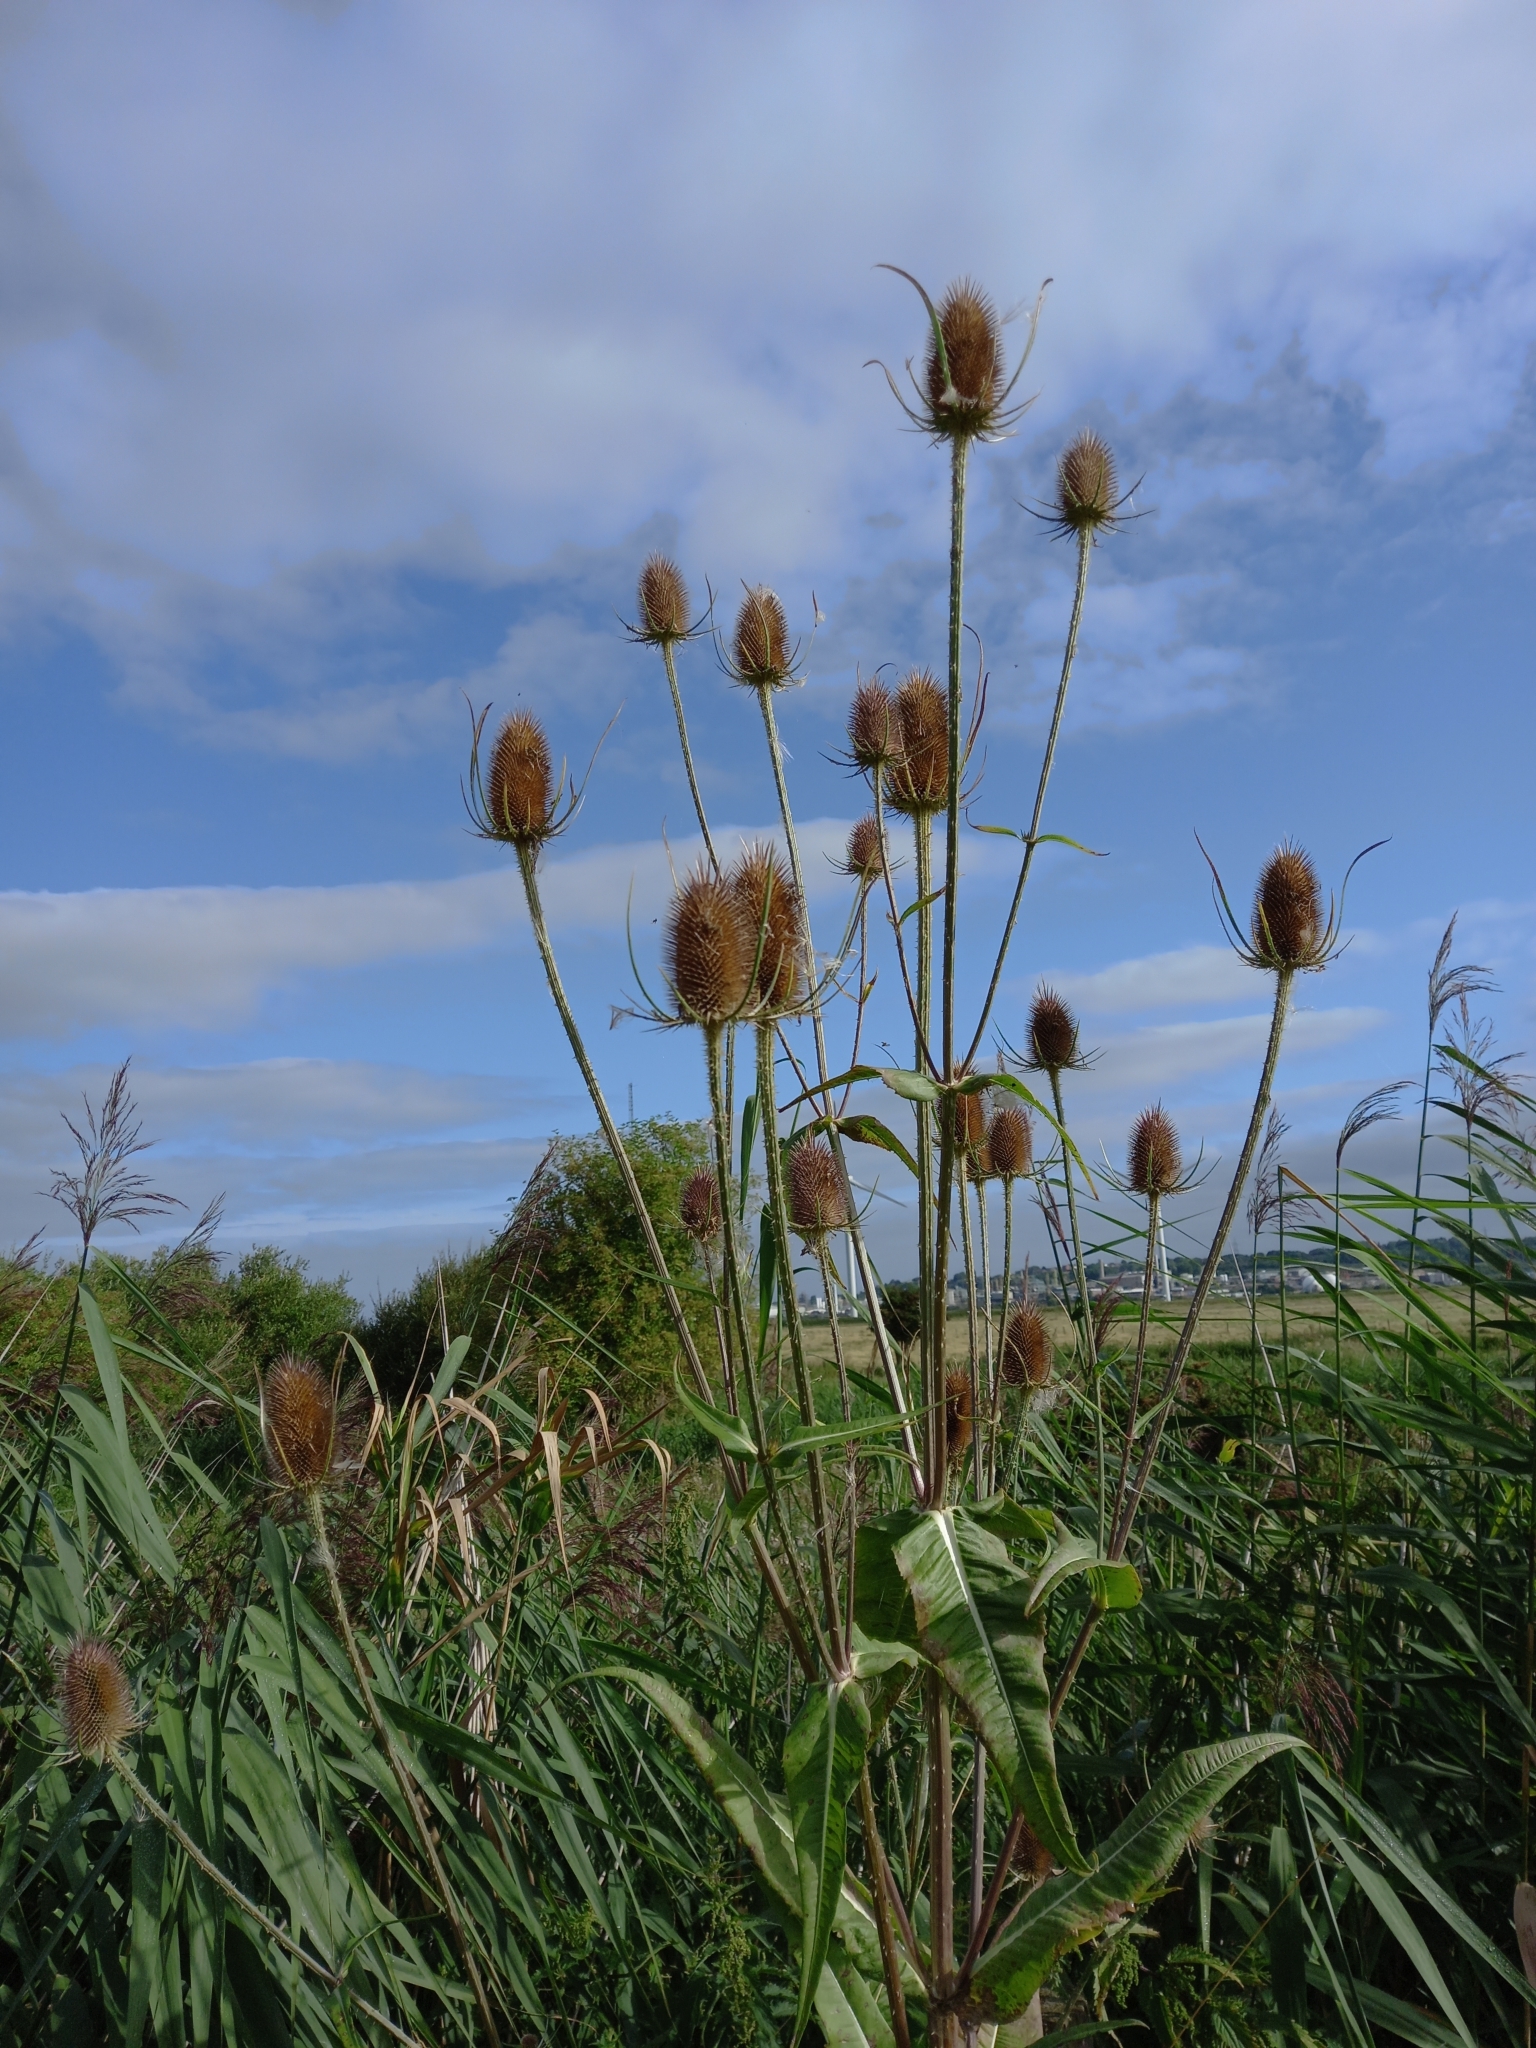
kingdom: Plantae
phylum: Tracheophyta
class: Magnoliopsida
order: Dipsacales
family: Caprifoliaceae
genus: Dipsacus
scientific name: Dipsacus fullonum
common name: Teasel
